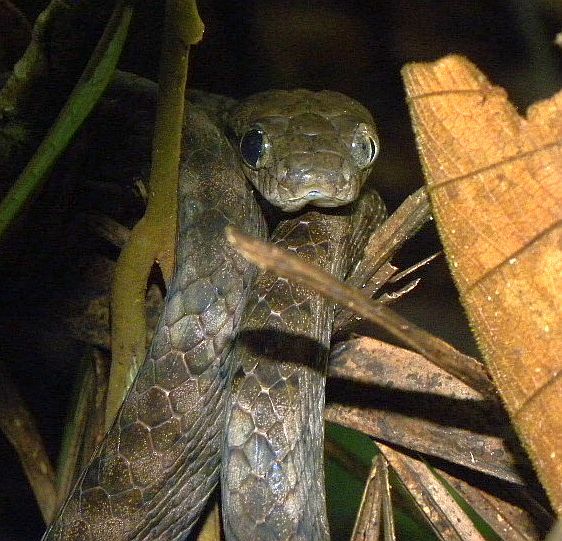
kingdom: Animalia
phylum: Chordata
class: Squamata
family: Colubridae
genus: Boiga
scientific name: Boiga irregularis
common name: Brown tree snake
